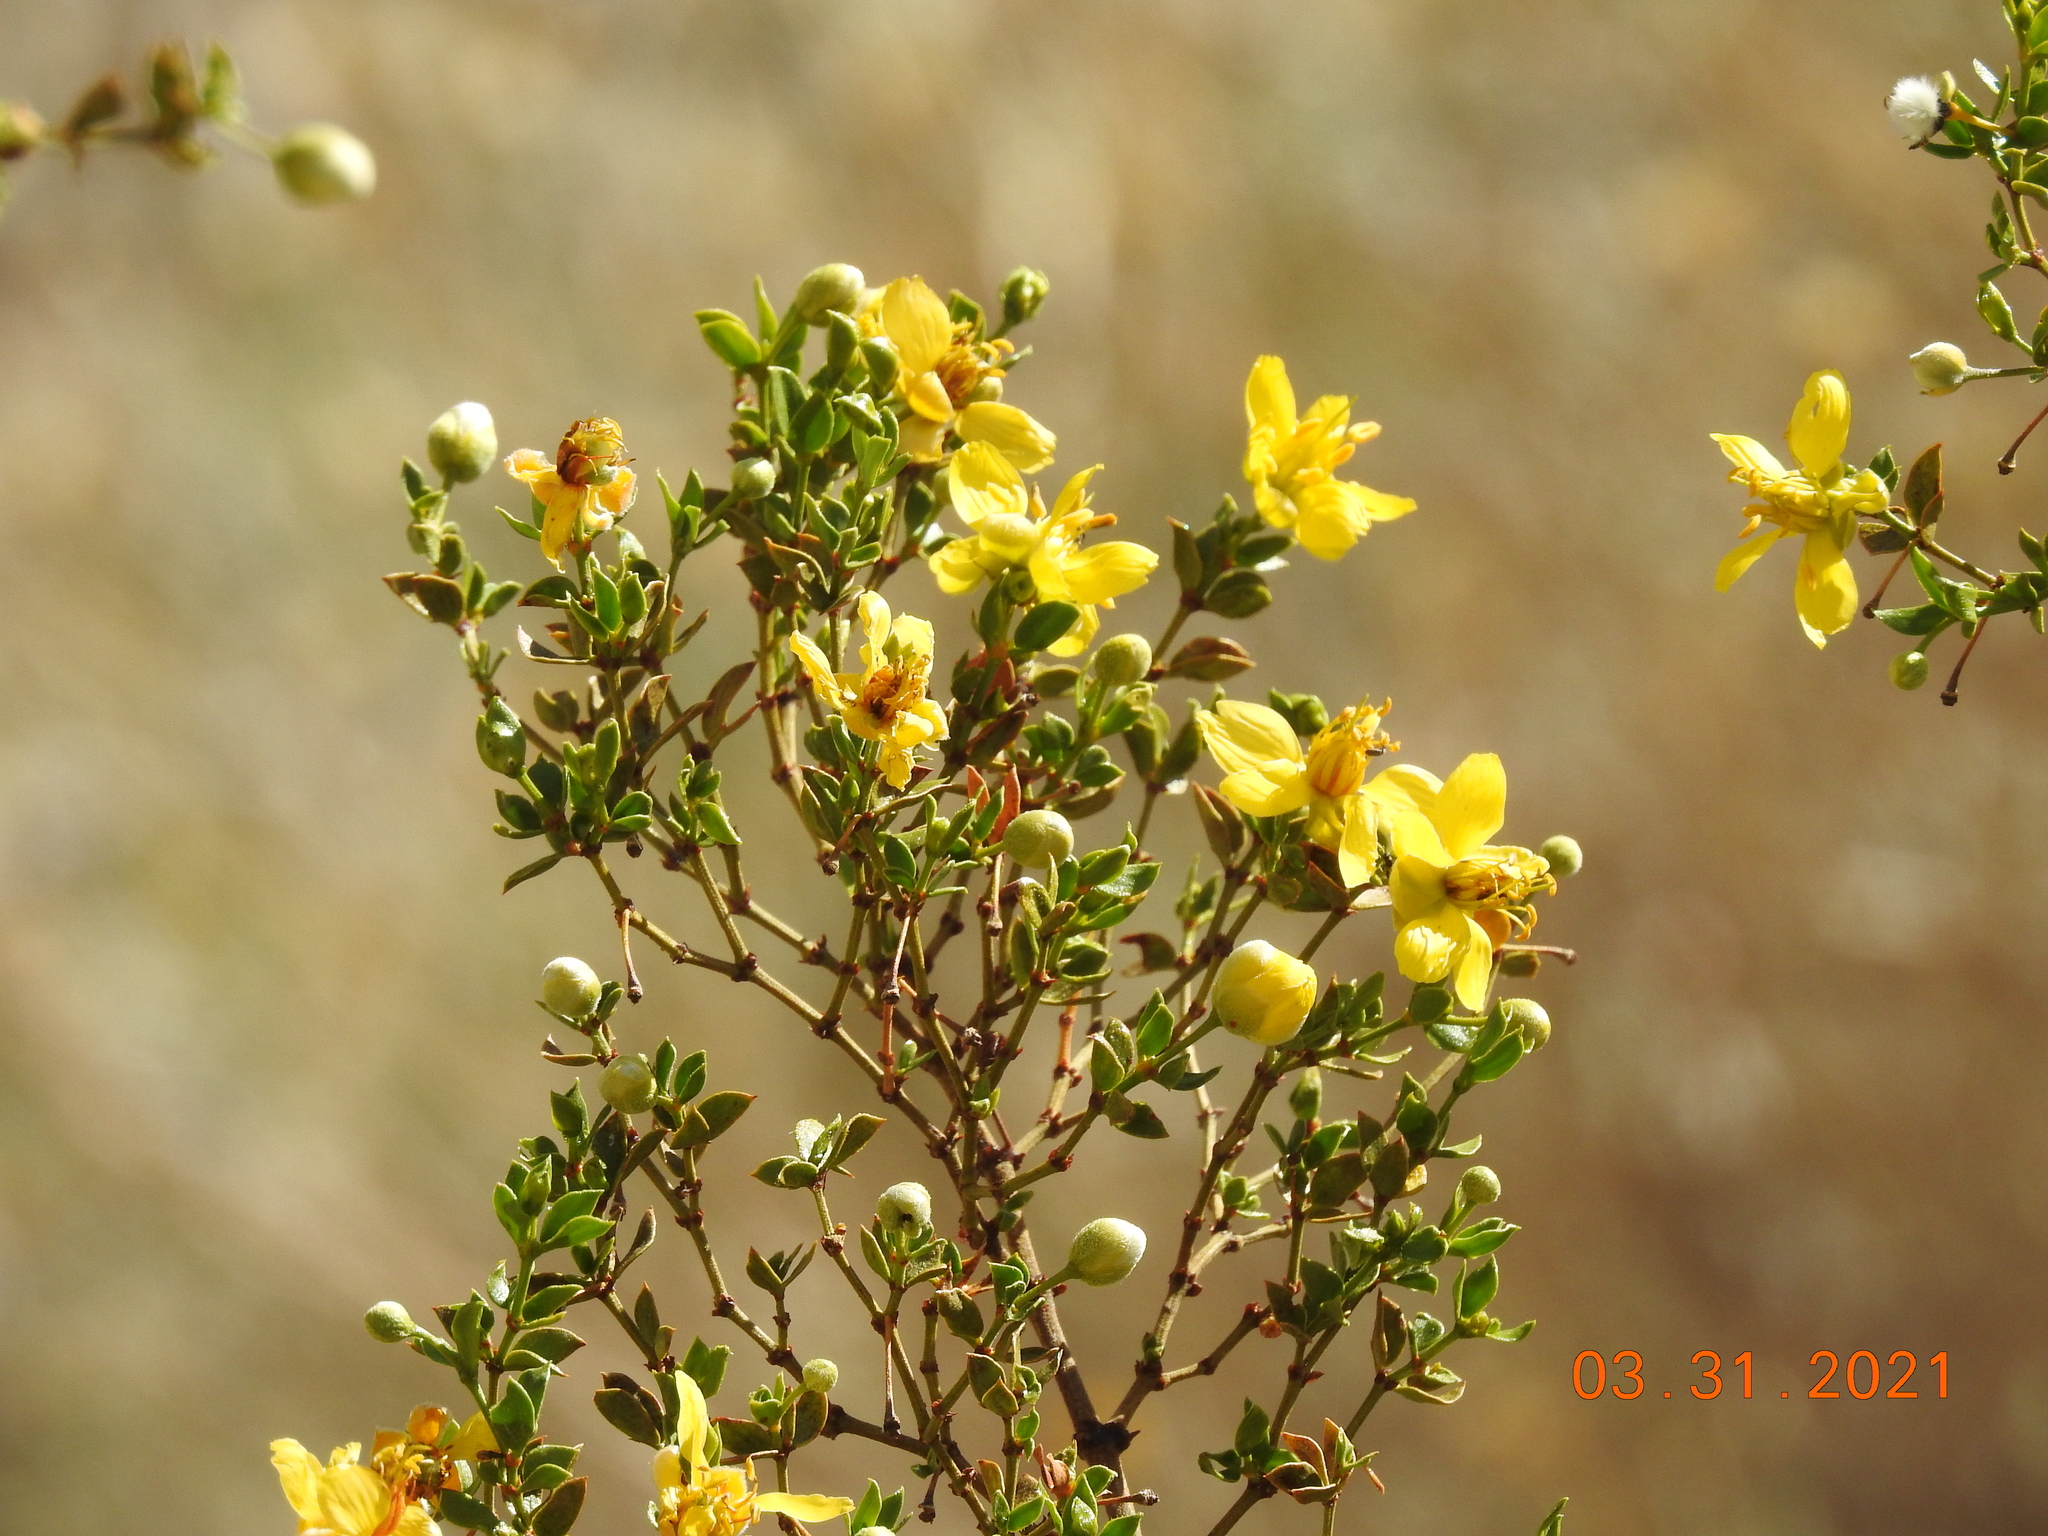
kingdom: Plantae
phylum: Tracheophyta
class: Magnoliopsida
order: Zygophyllales
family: Zygophyllaceae
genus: Larrea
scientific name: Larrea tridentata
